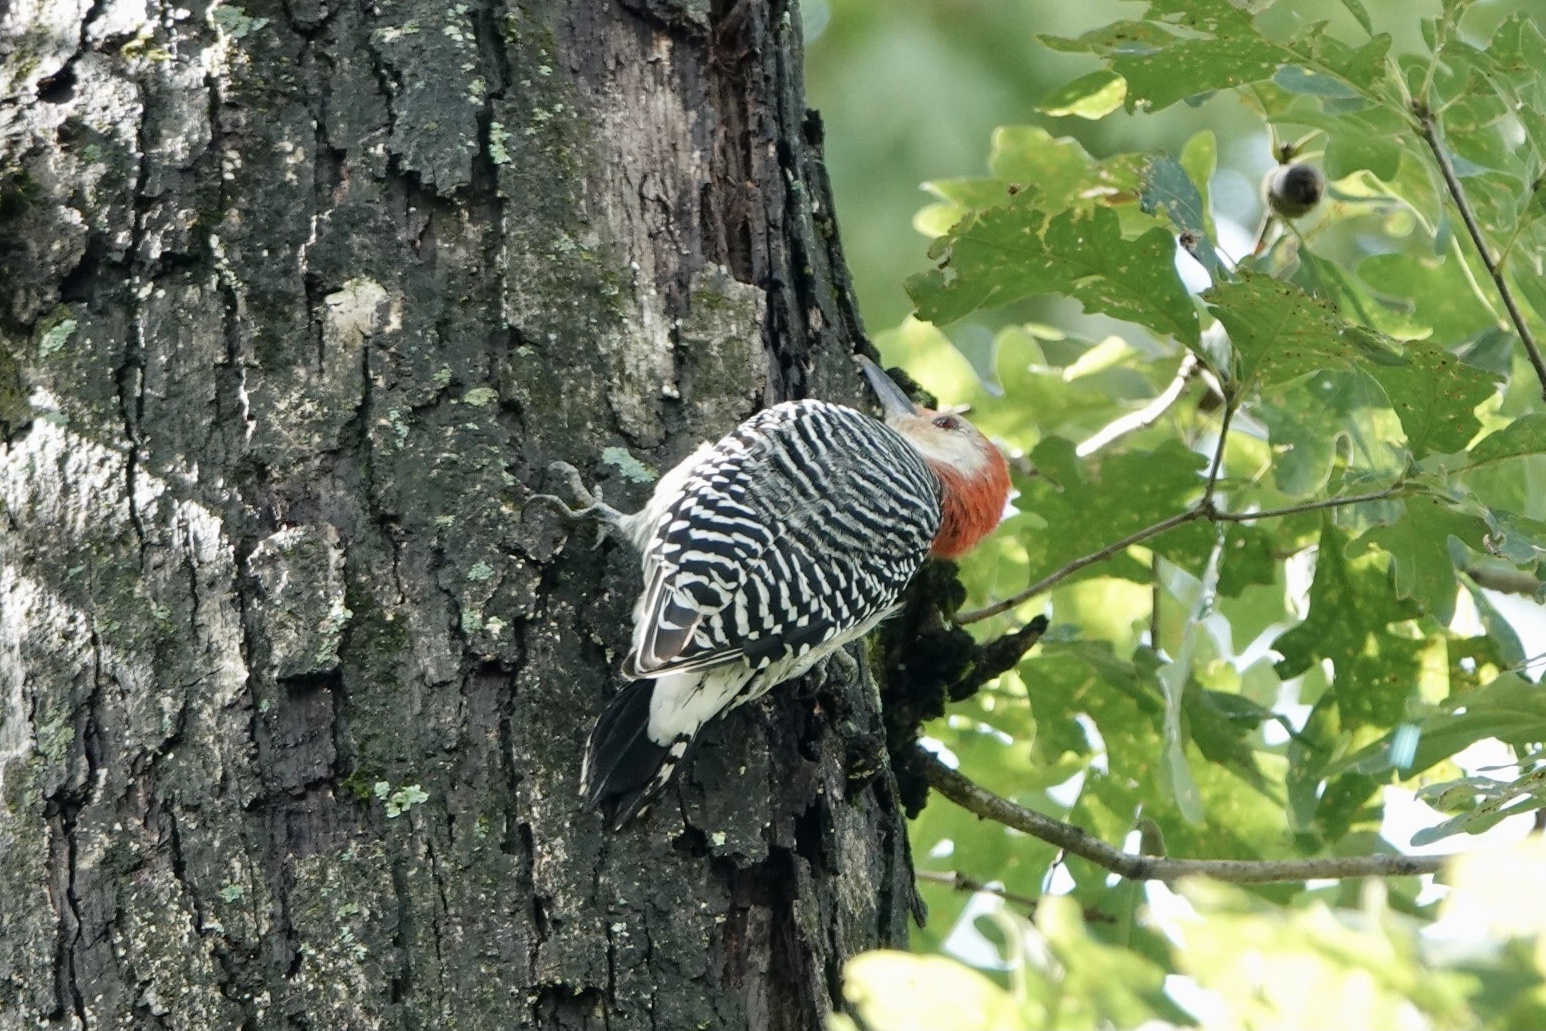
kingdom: Animalia
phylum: Chordata
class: Aves
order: Piciformes
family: Picidae
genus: Melanerpes
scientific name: Melanerpes carolinus
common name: Red-bellied woodpecker
